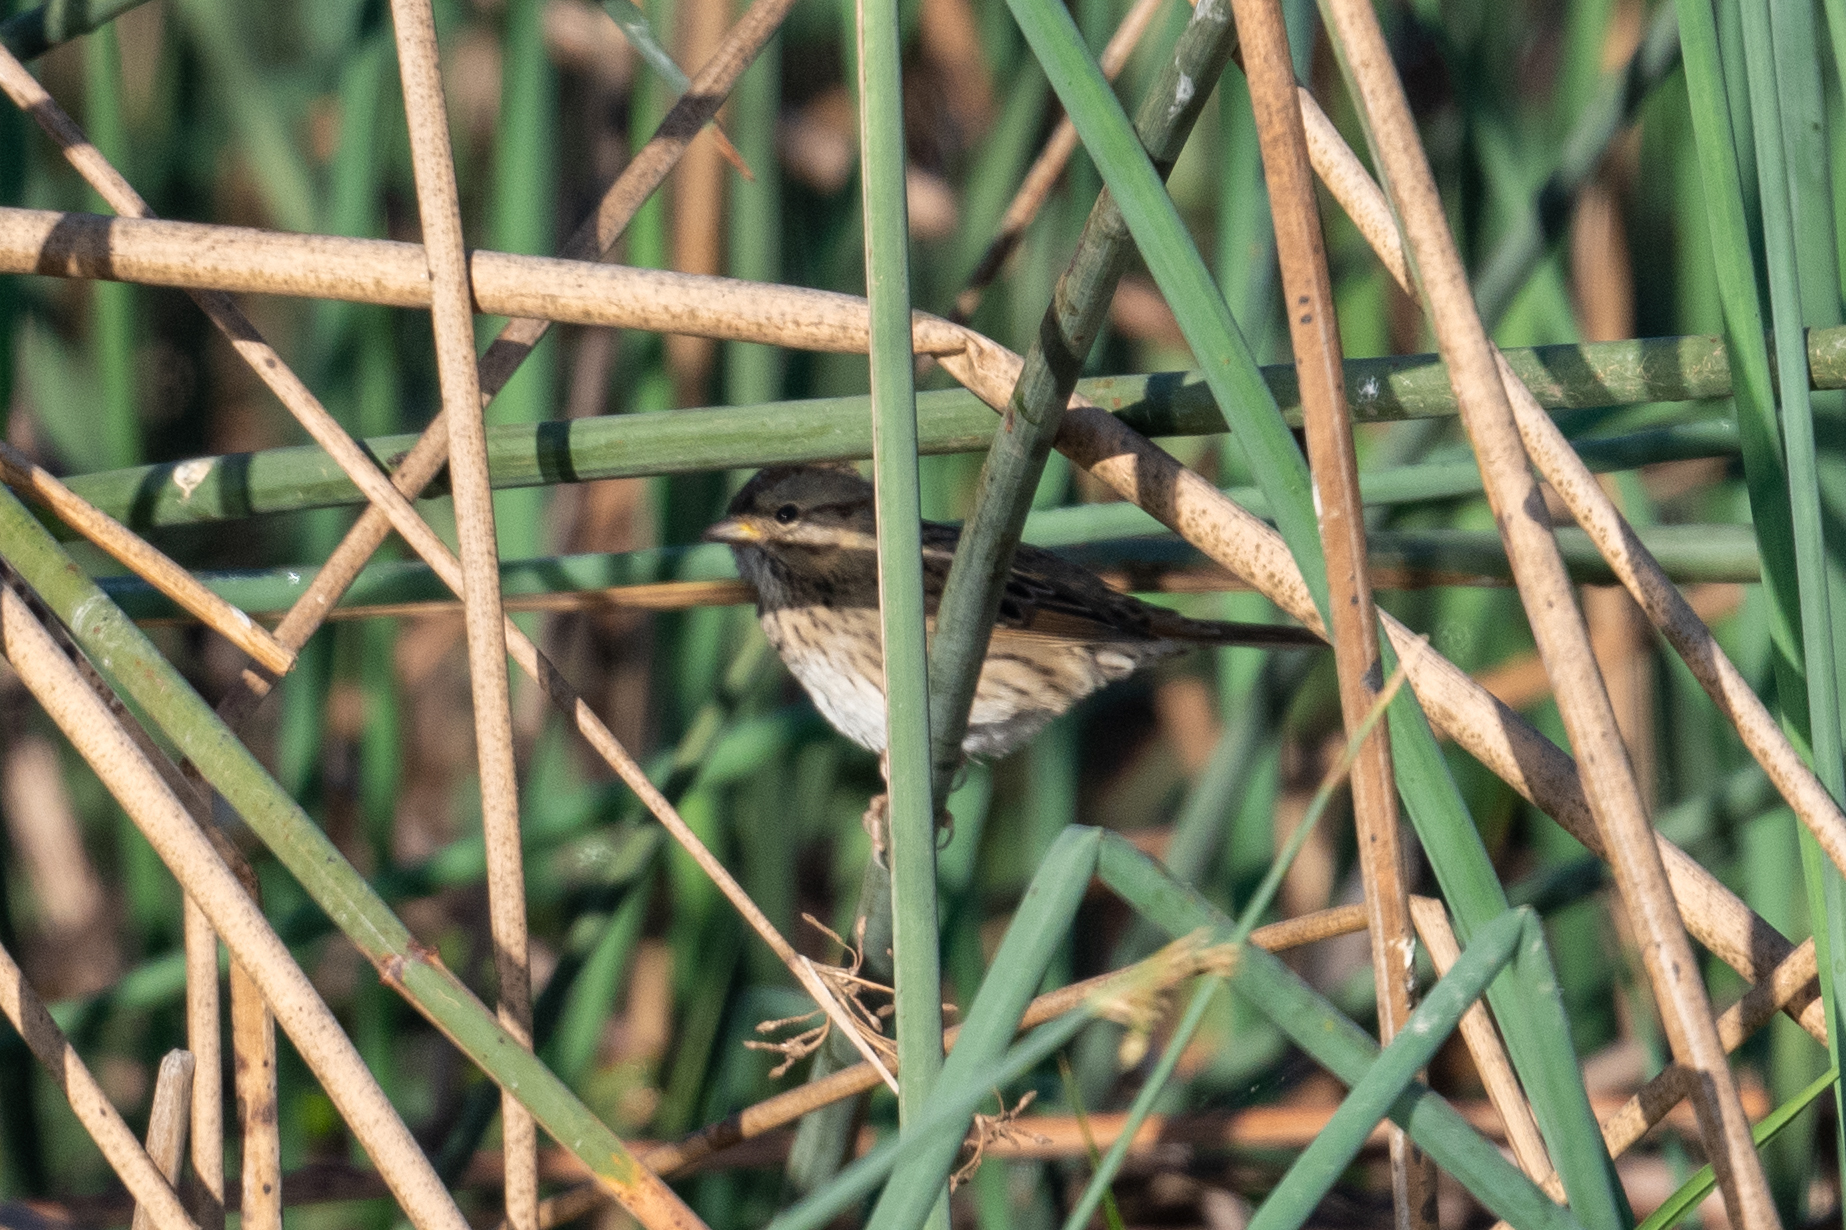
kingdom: Animalia
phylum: Chordata
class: Aves
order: Passeriformes
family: Passerellidae
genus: Melospiza
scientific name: Melospiza lincolnii
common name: Lincoln's sparrow
